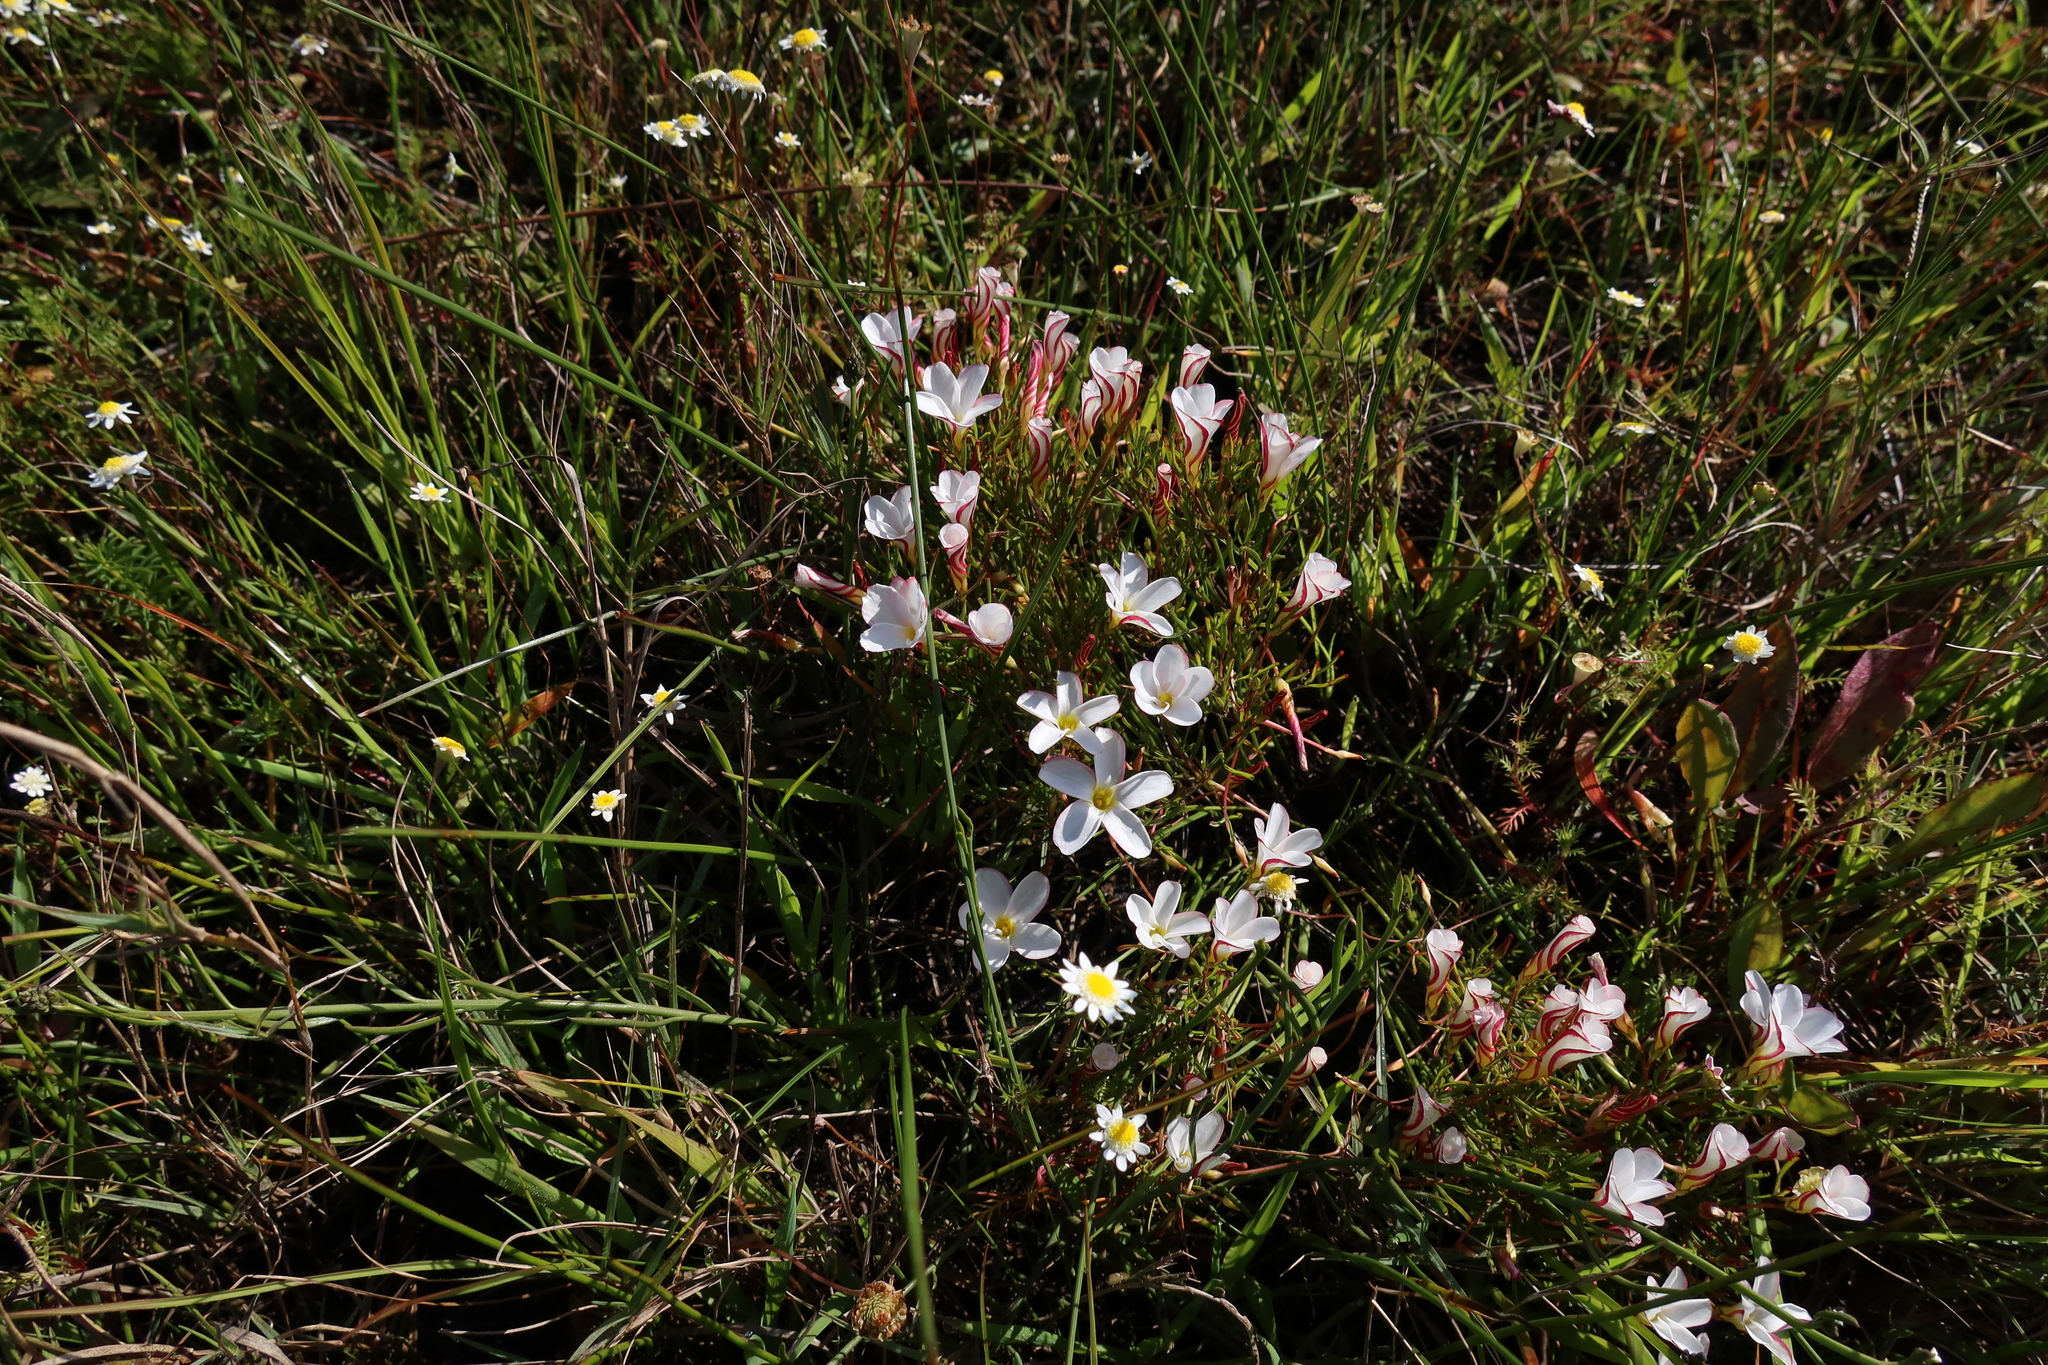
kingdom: Plantae
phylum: Tracheophyta
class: Magnoliopsida
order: Oxalidales
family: Oxalidaceae
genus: Oxalis
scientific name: Oxalis versicolor
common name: Peppermint rock oxalis
